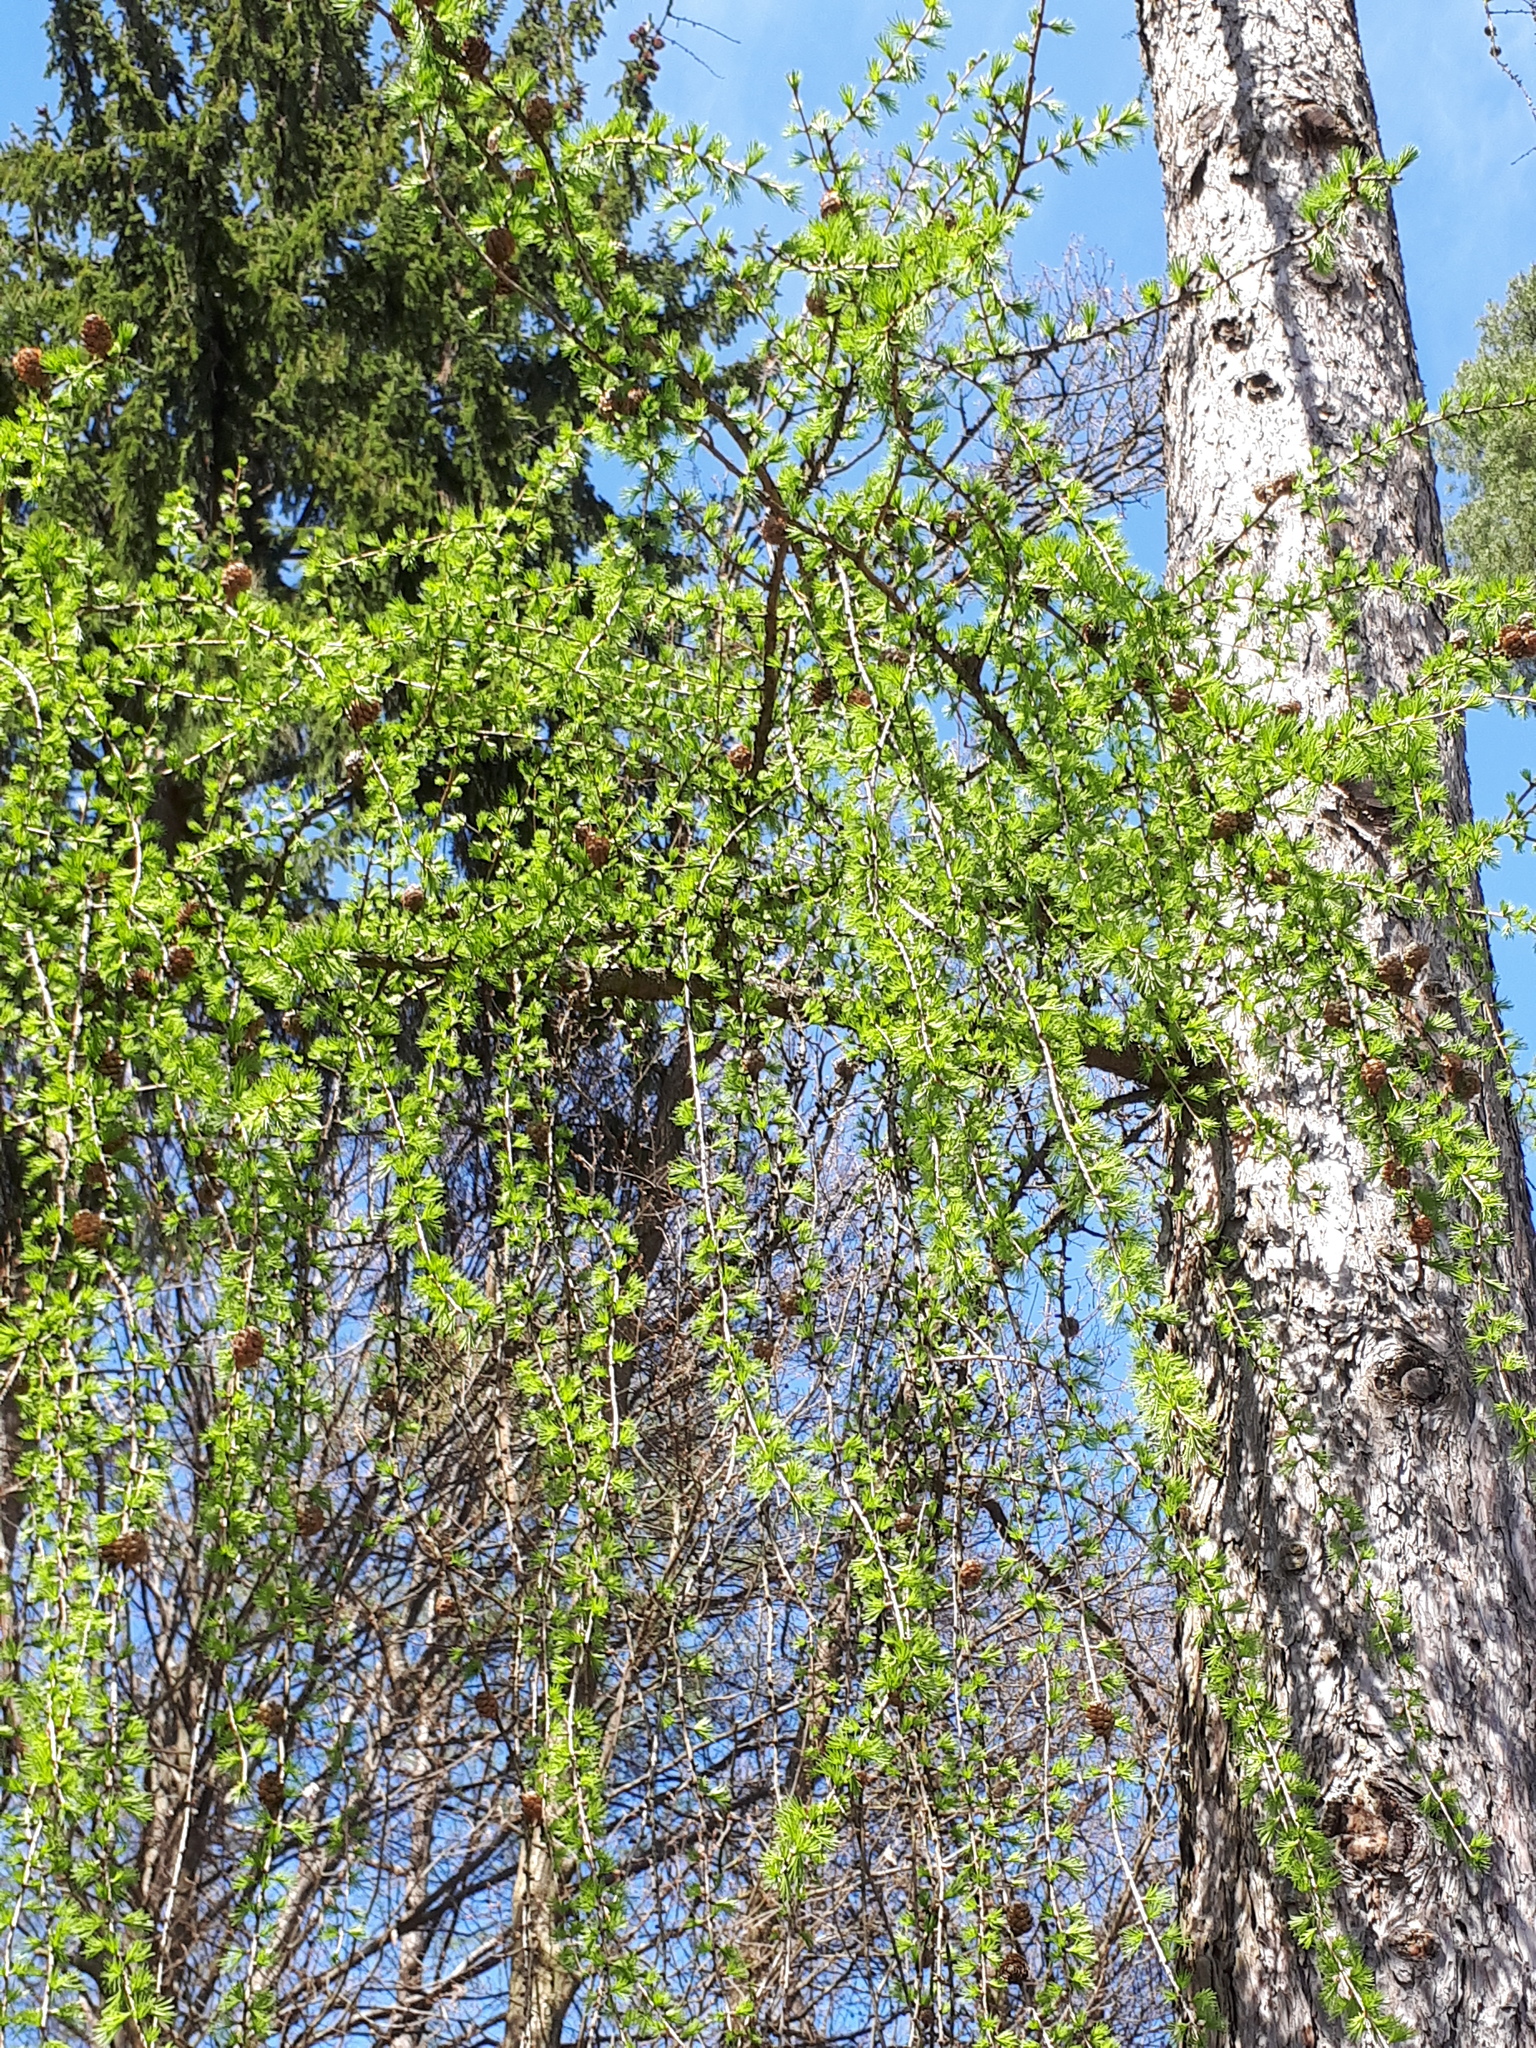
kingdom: Plantae
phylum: Tracheophyta
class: Pinopsida
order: Pinales
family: Pinaceae
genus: Larix
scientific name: Larix decidua
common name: European larch
